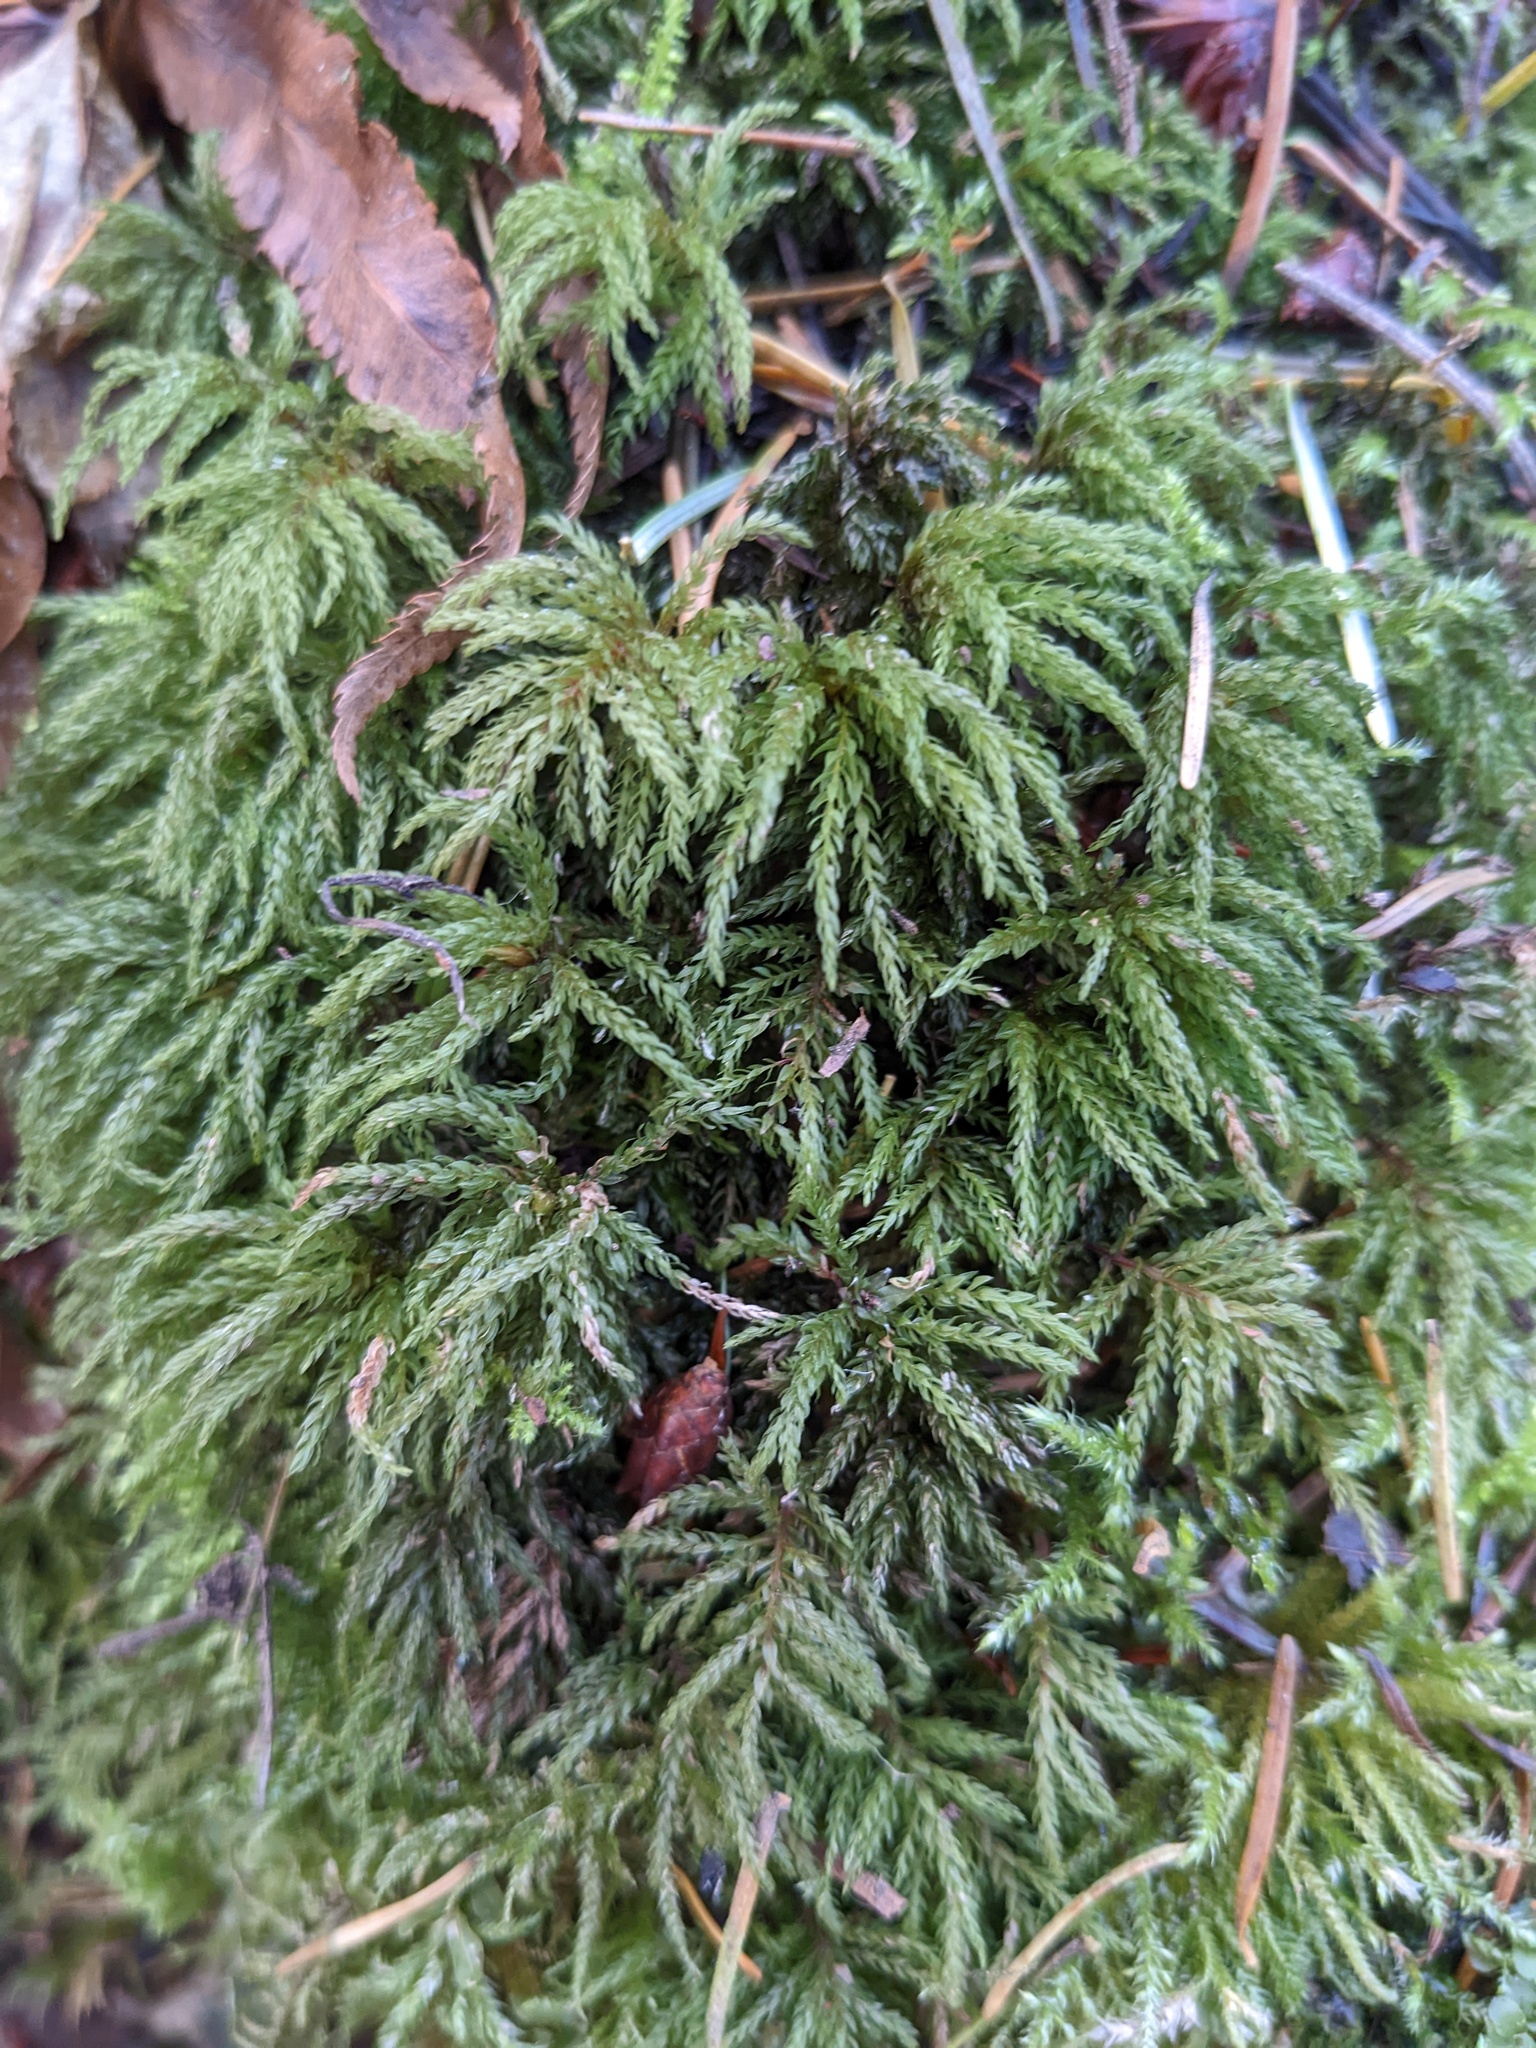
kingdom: Plantae
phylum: Bryophyta
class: Bryopsida
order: Bryales
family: Mniaceae
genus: Leucolepis
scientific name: Leucolepis acanthoneura
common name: Leucolepis umbrella moss
